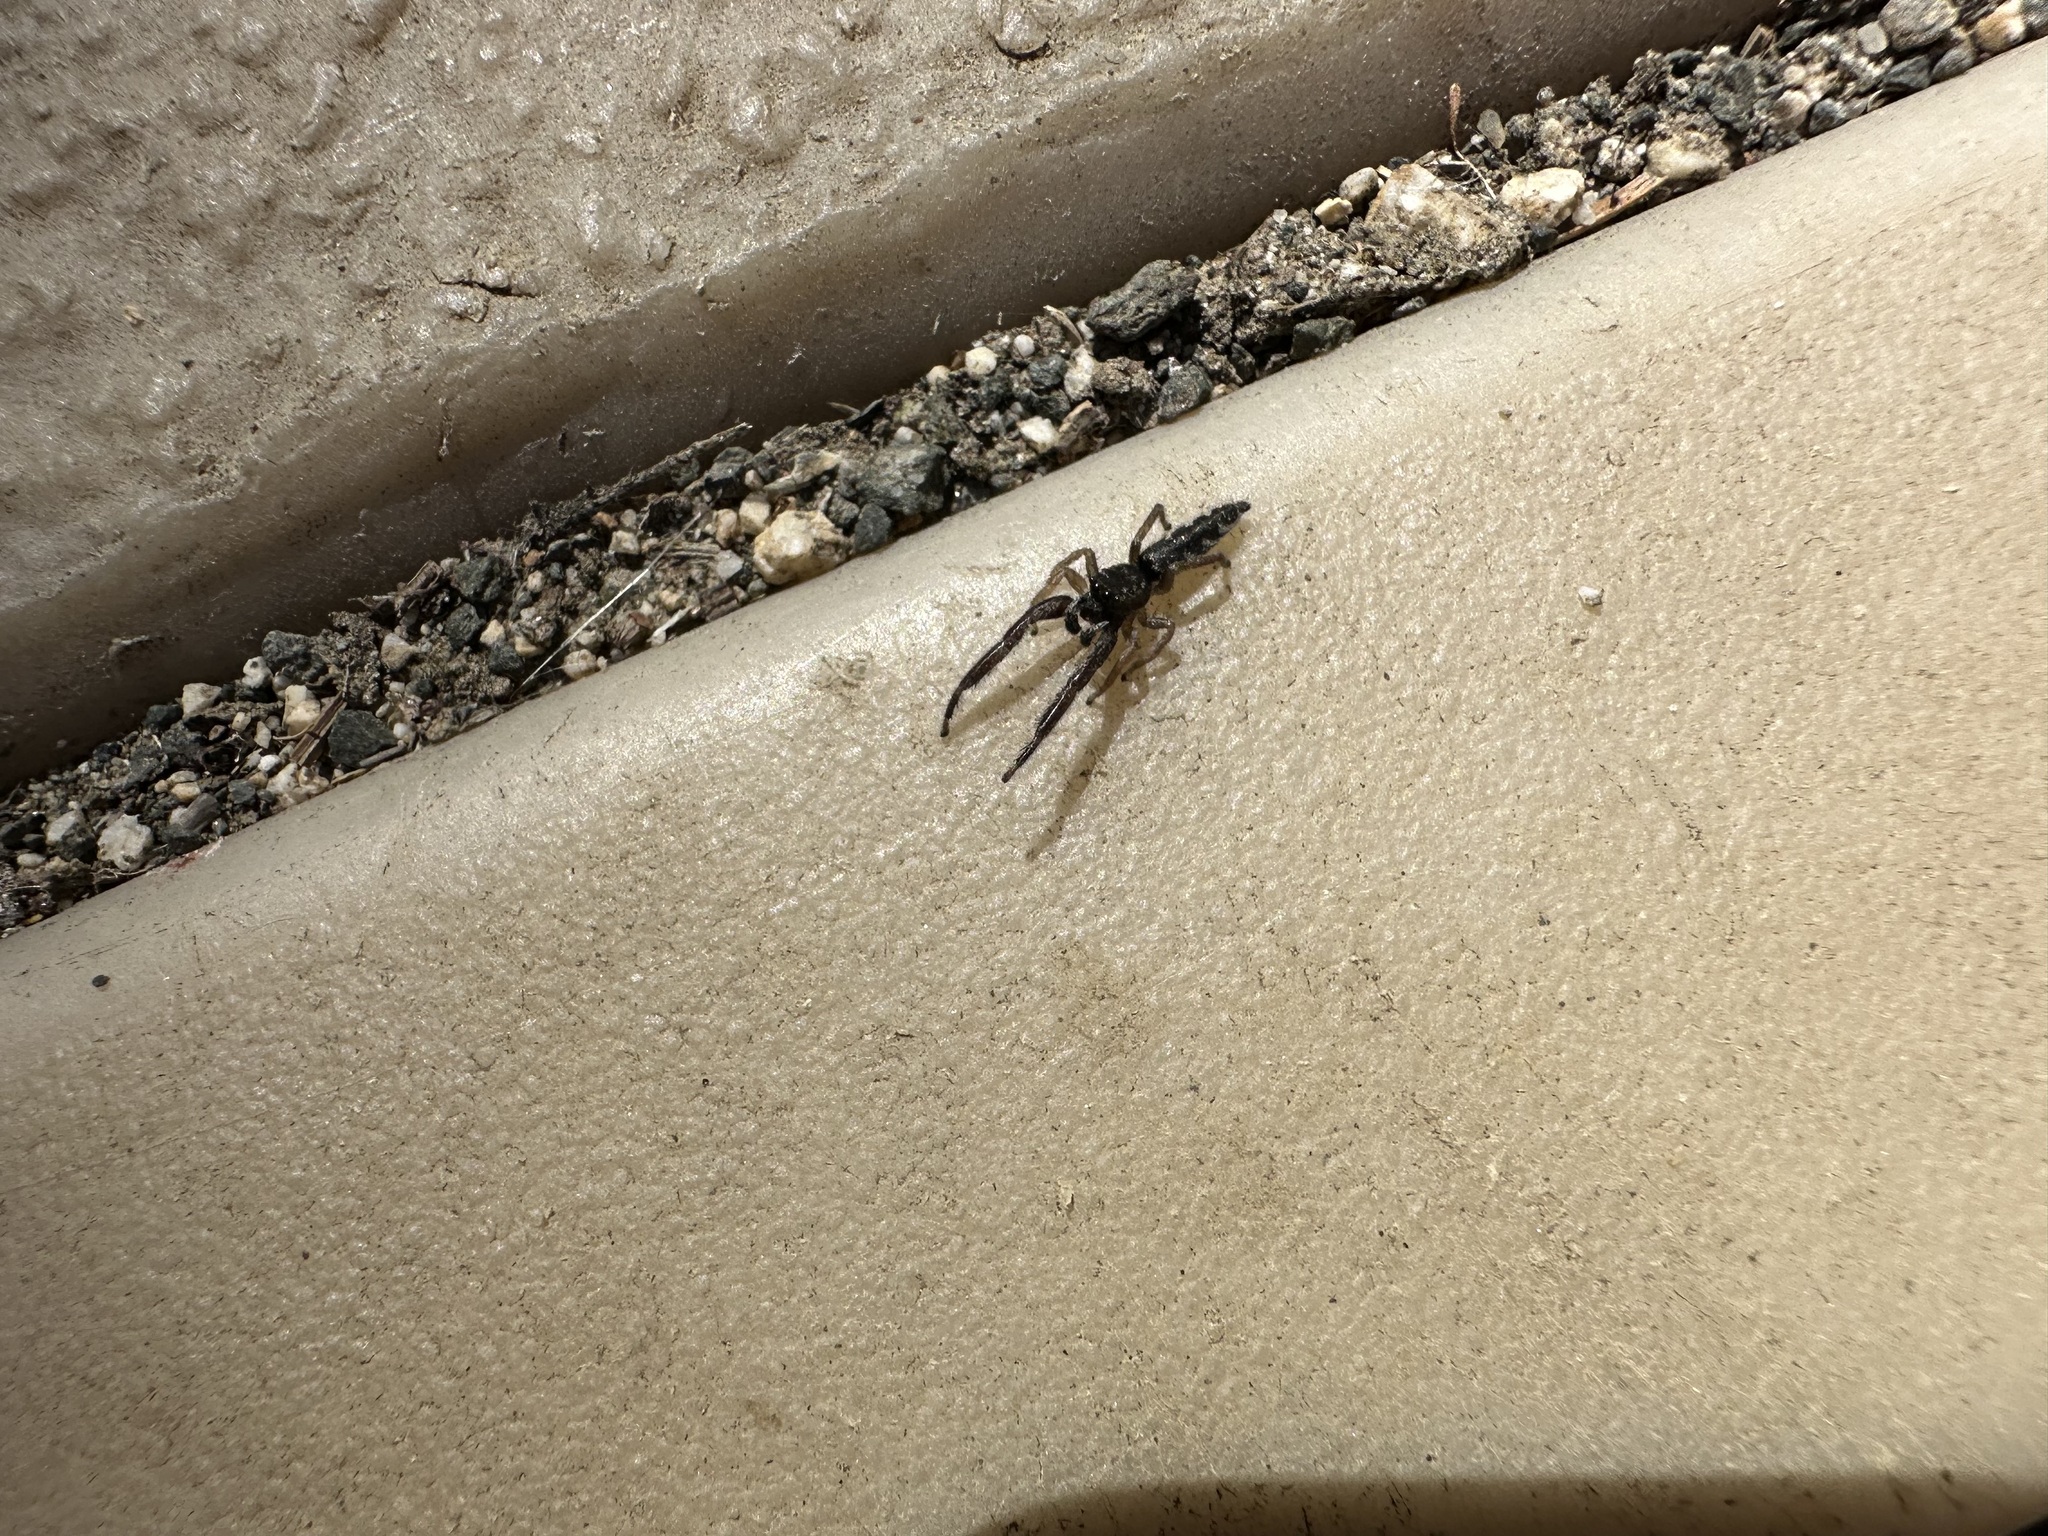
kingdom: Animalia
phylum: Arthropoda
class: Arachnida
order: Araneae
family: Salticidae
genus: Marpissa
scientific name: Marpissa robusta
